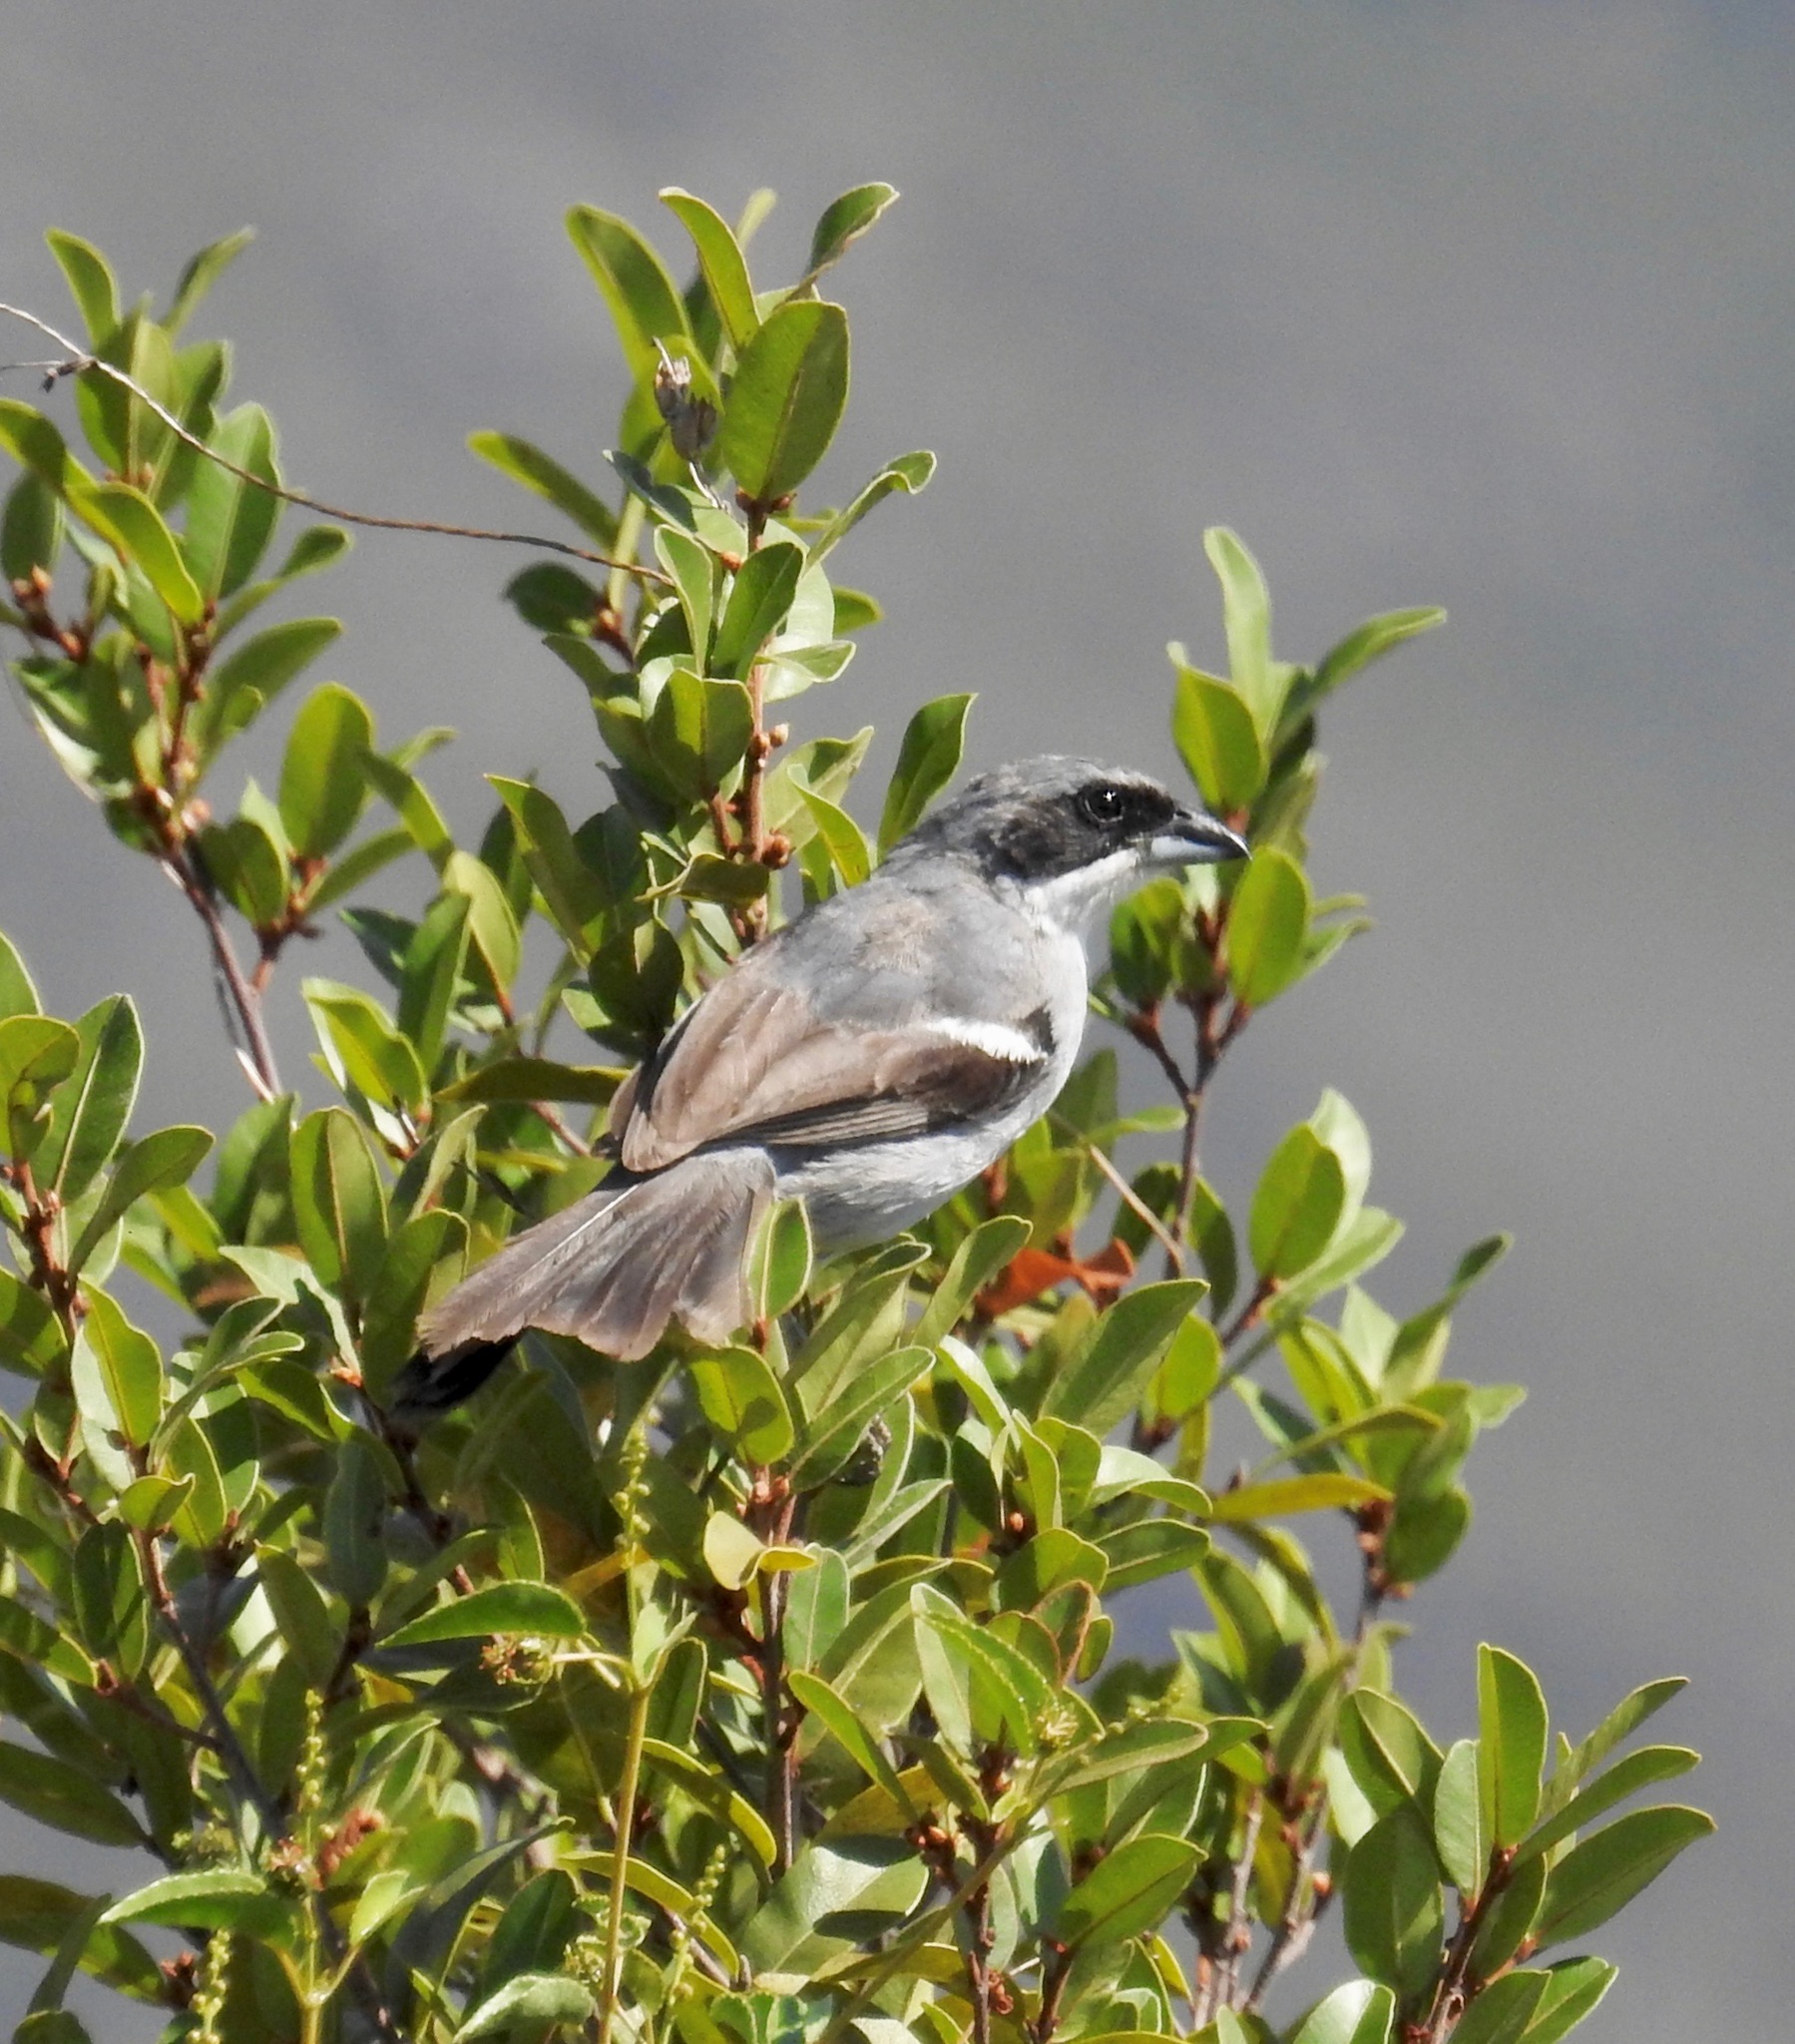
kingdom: Animalia
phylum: Chordata
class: Aves
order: Passeriformes
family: Thraupidae
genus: Neothraupis
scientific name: Neothraupis fasciata
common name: Shrike-like tanager
